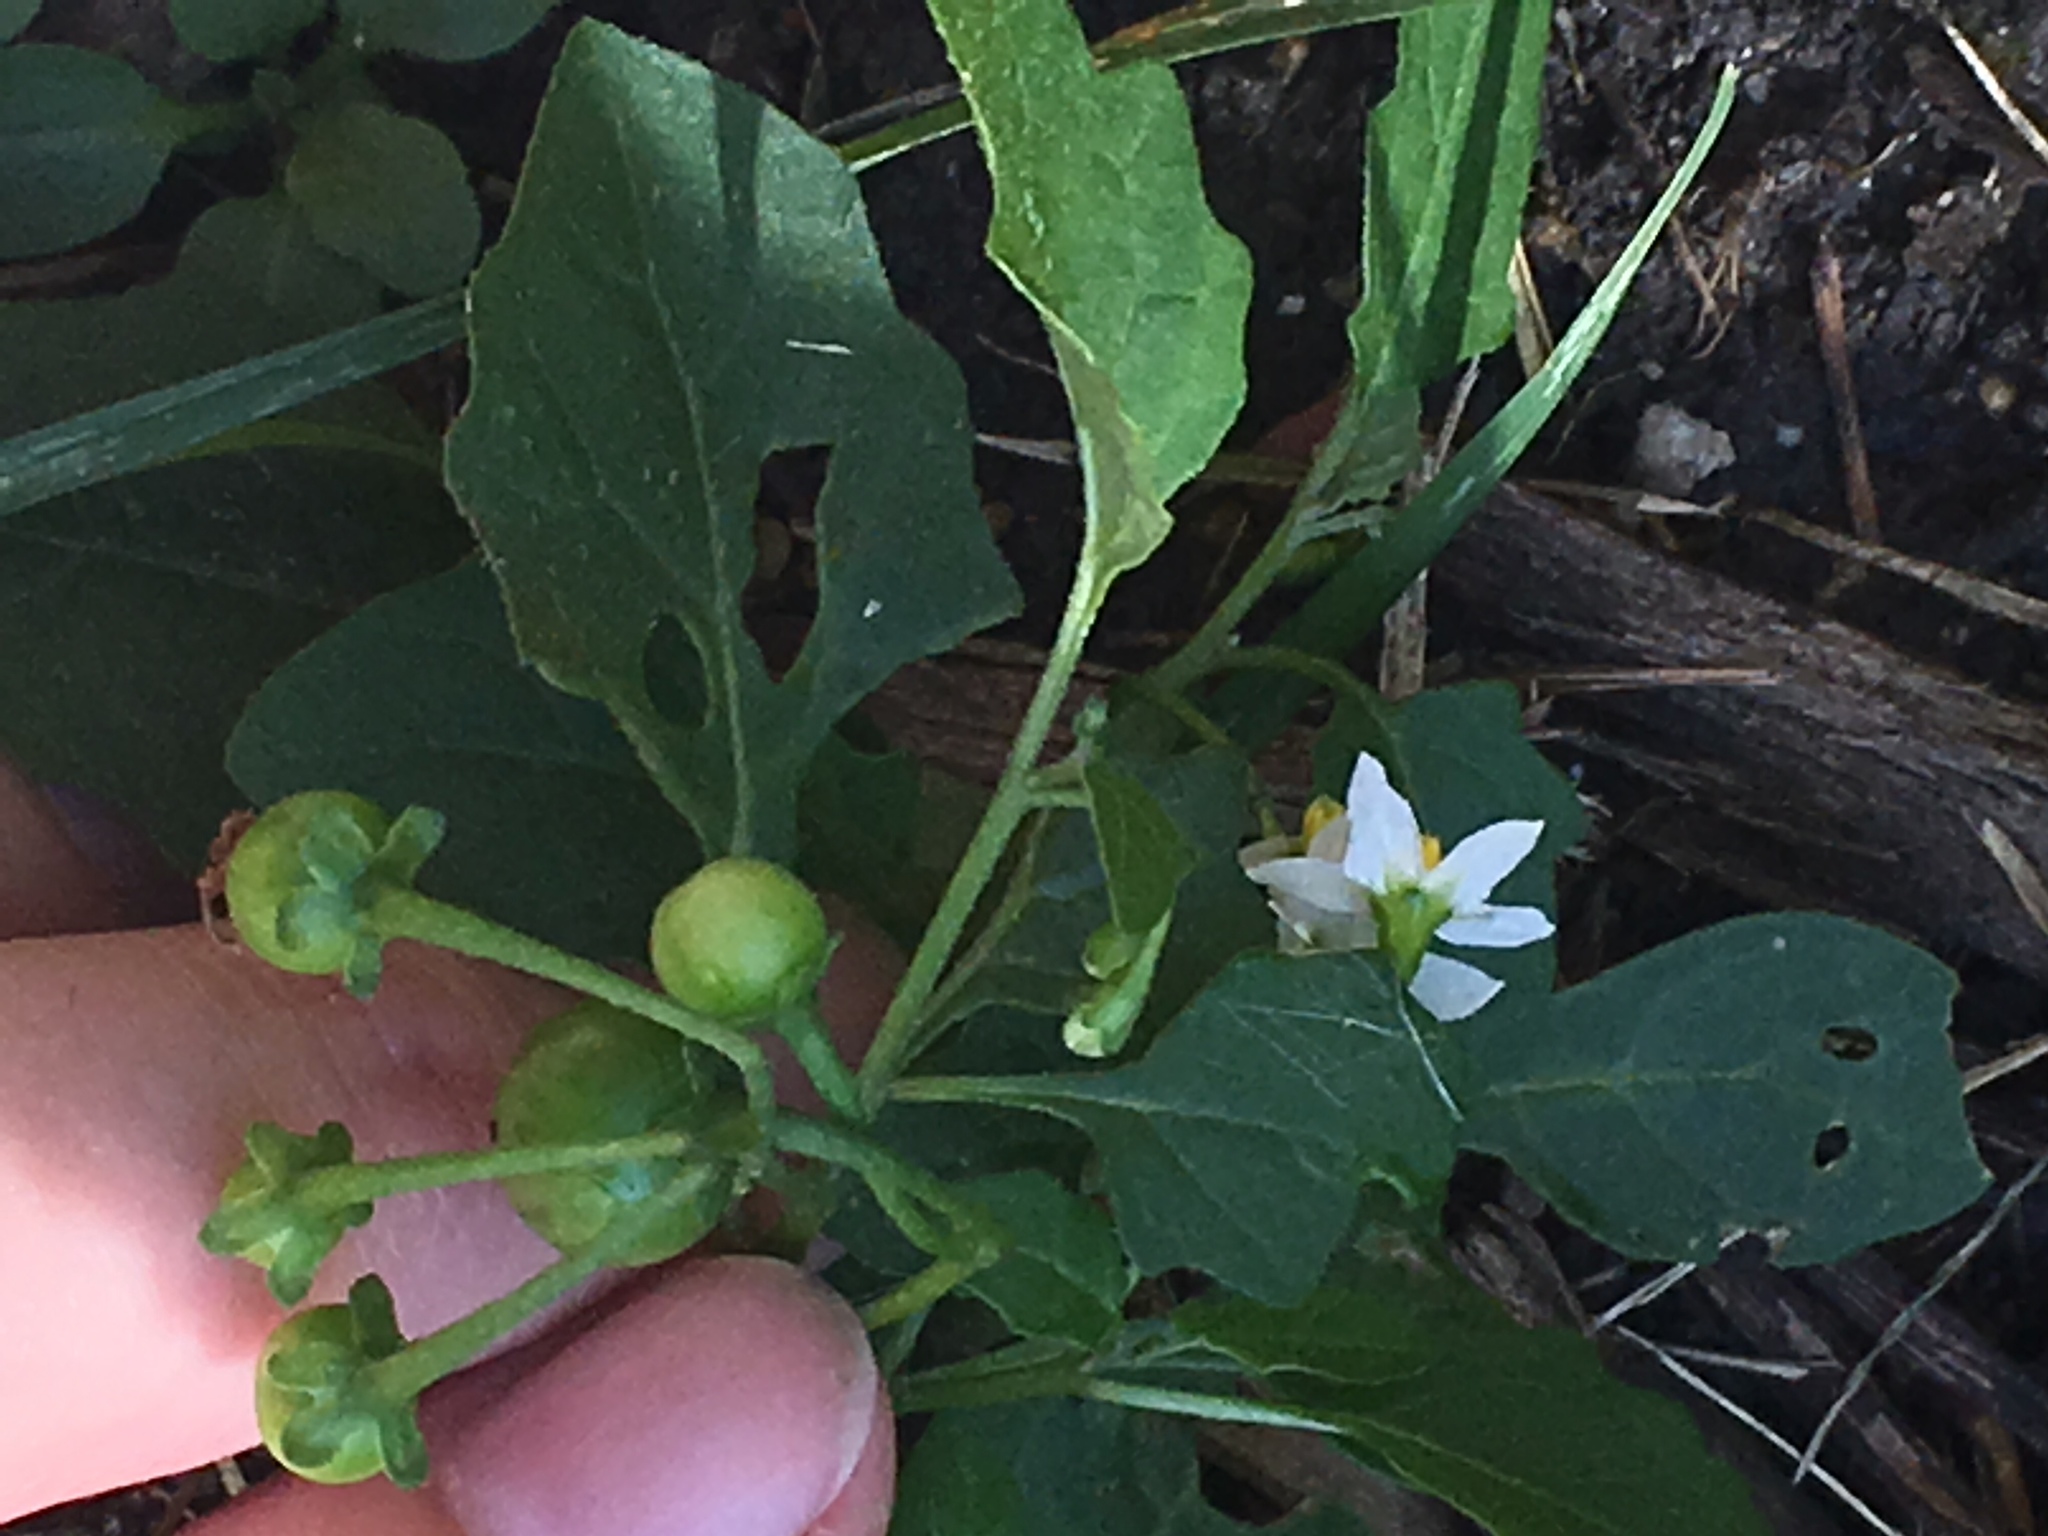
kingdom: Plantae
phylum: Tracheophyta
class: Magnoliopsida
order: Solanales
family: Solanaceae
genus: Solanum
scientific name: Solanum emulans
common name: Eastern black nightshade
